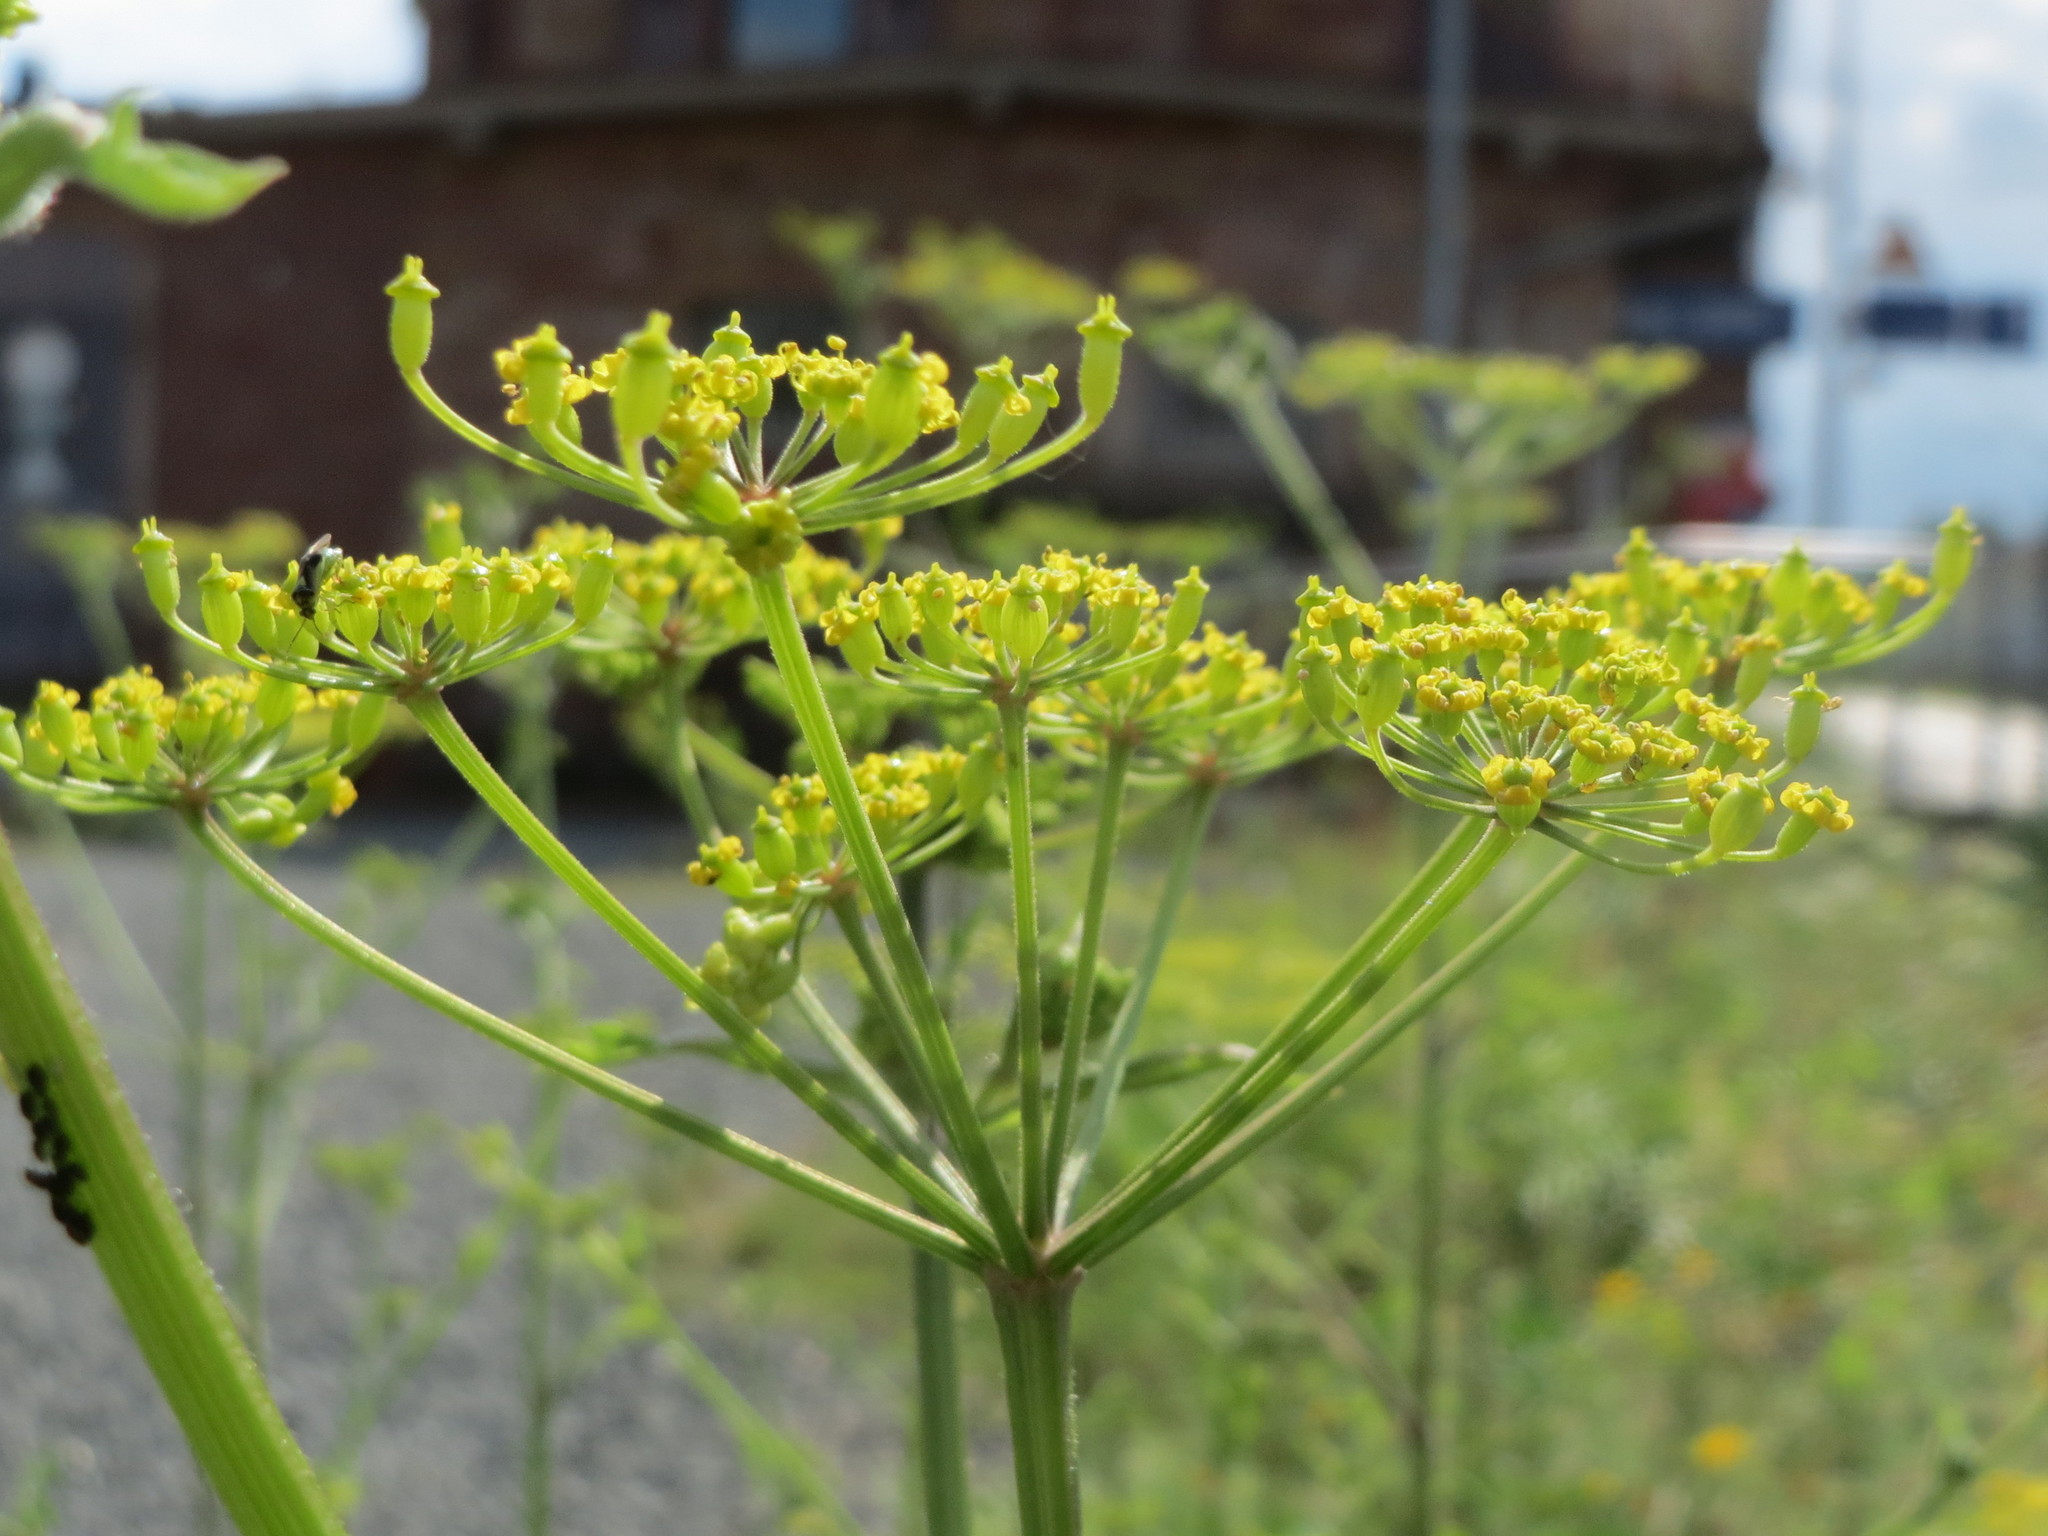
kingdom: Plantae
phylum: Tracheophyta
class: Magnoliopsida
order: Apiales
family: Apiaceae
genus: Pastinaca
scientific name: Pastinaca sativa
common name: Wild parsnip
